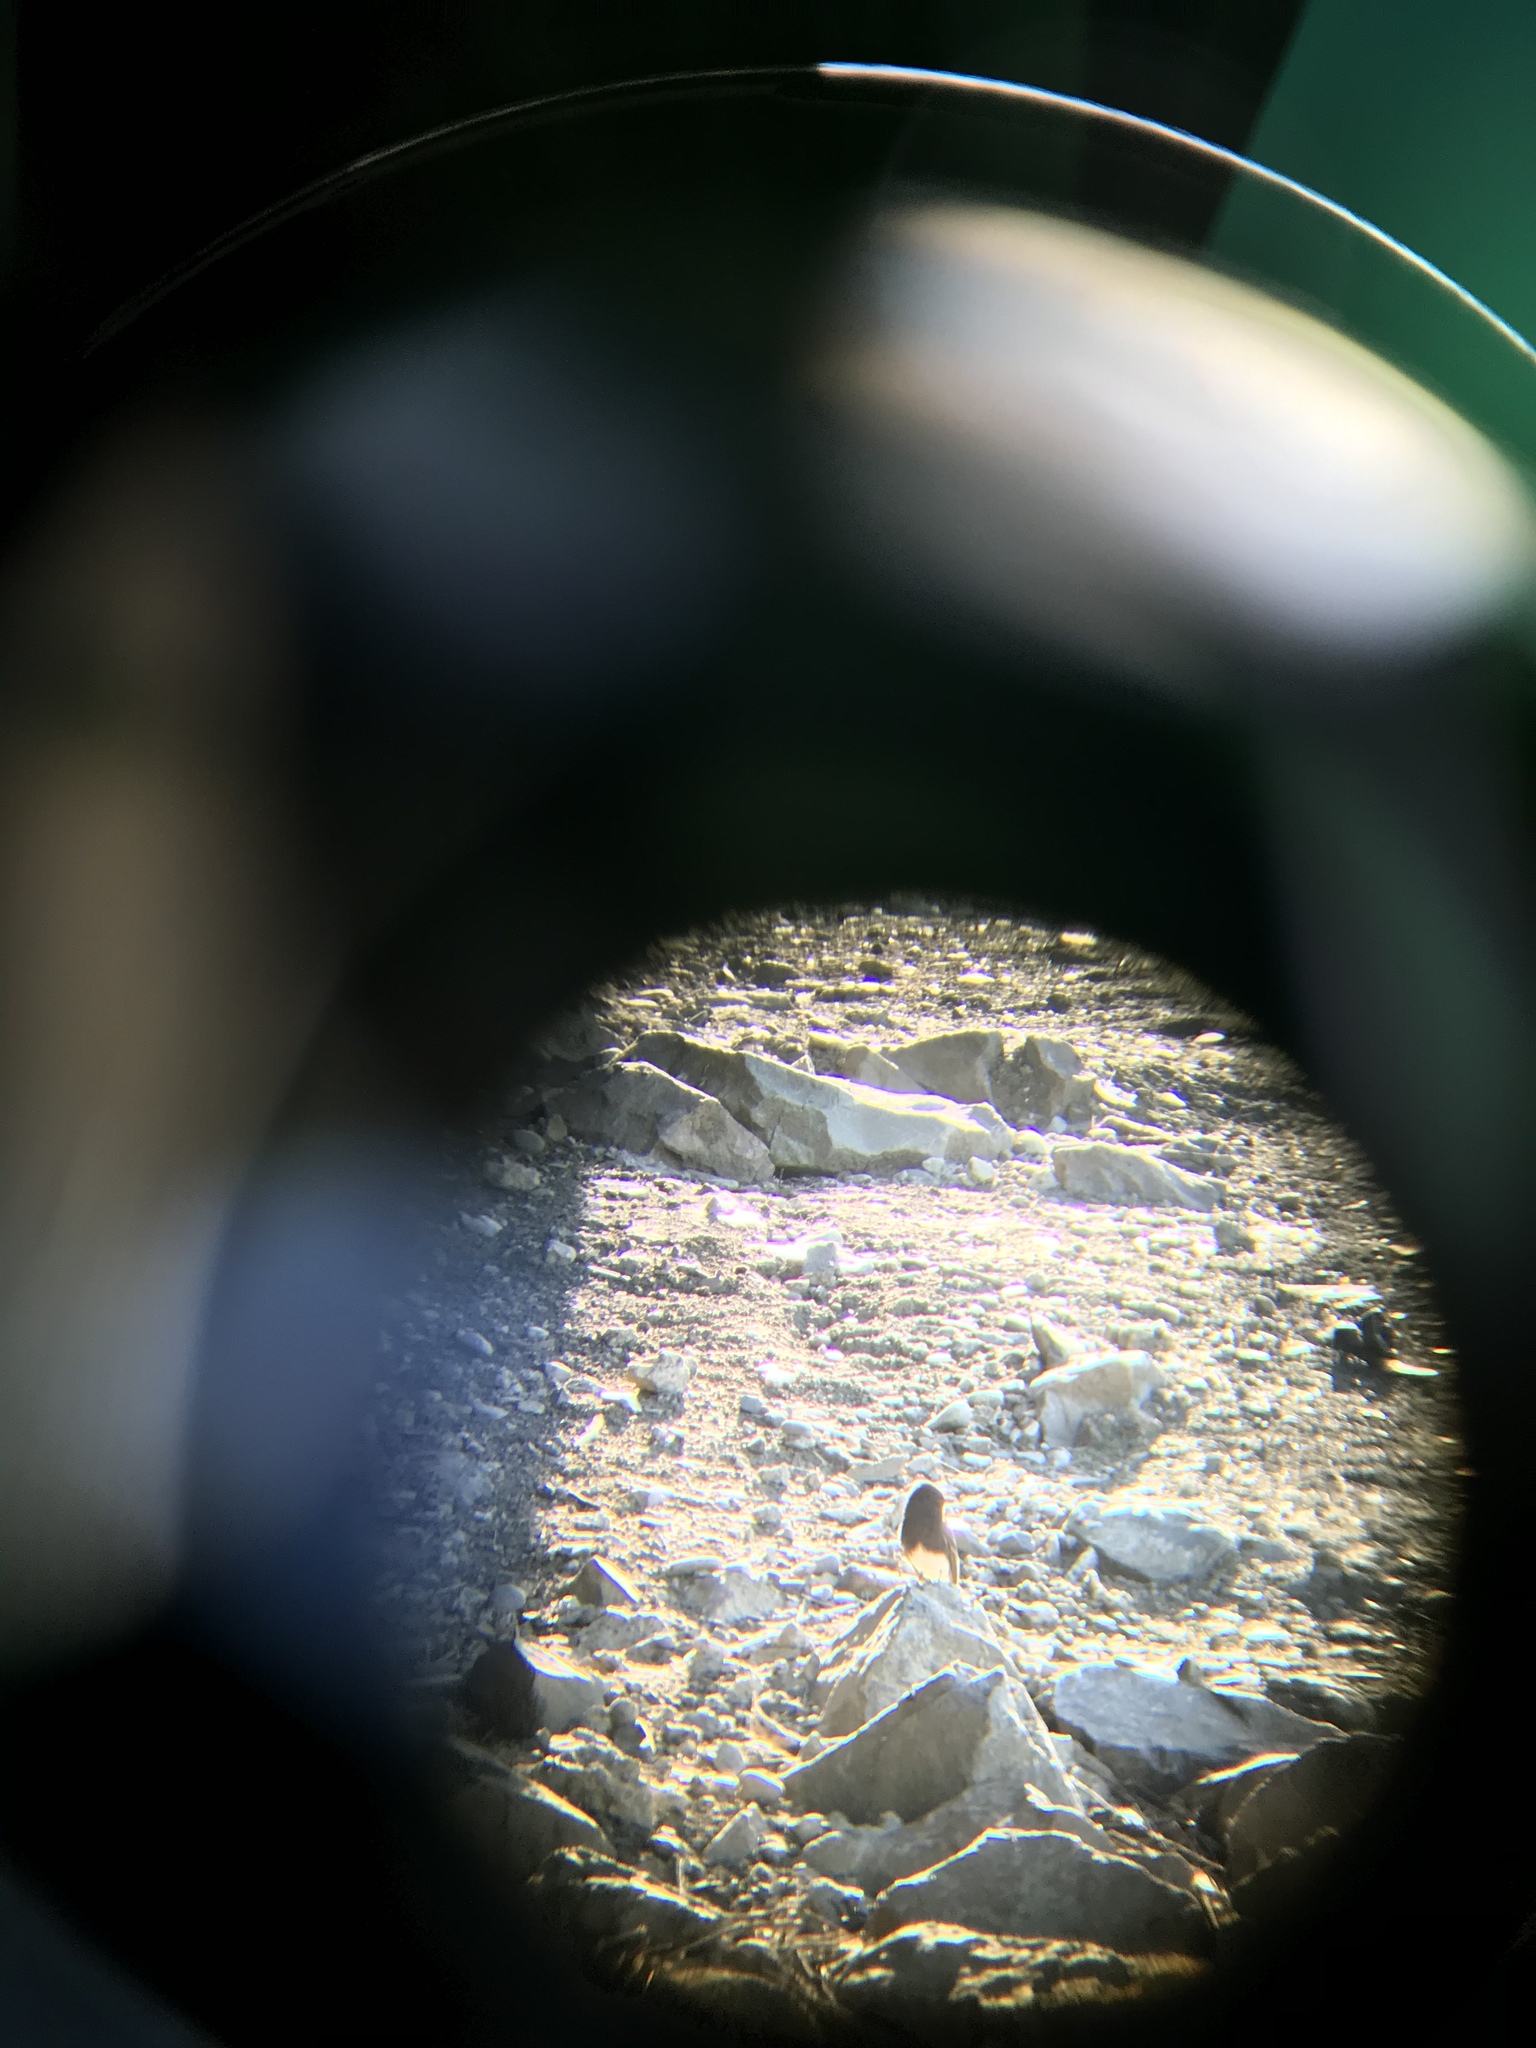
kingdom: Animalia
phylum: Chordata
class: Aves
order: Passeriformes
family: Tyrannidae
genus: Sayornis
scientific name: Sayornis nigricans
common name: Black phoebe
